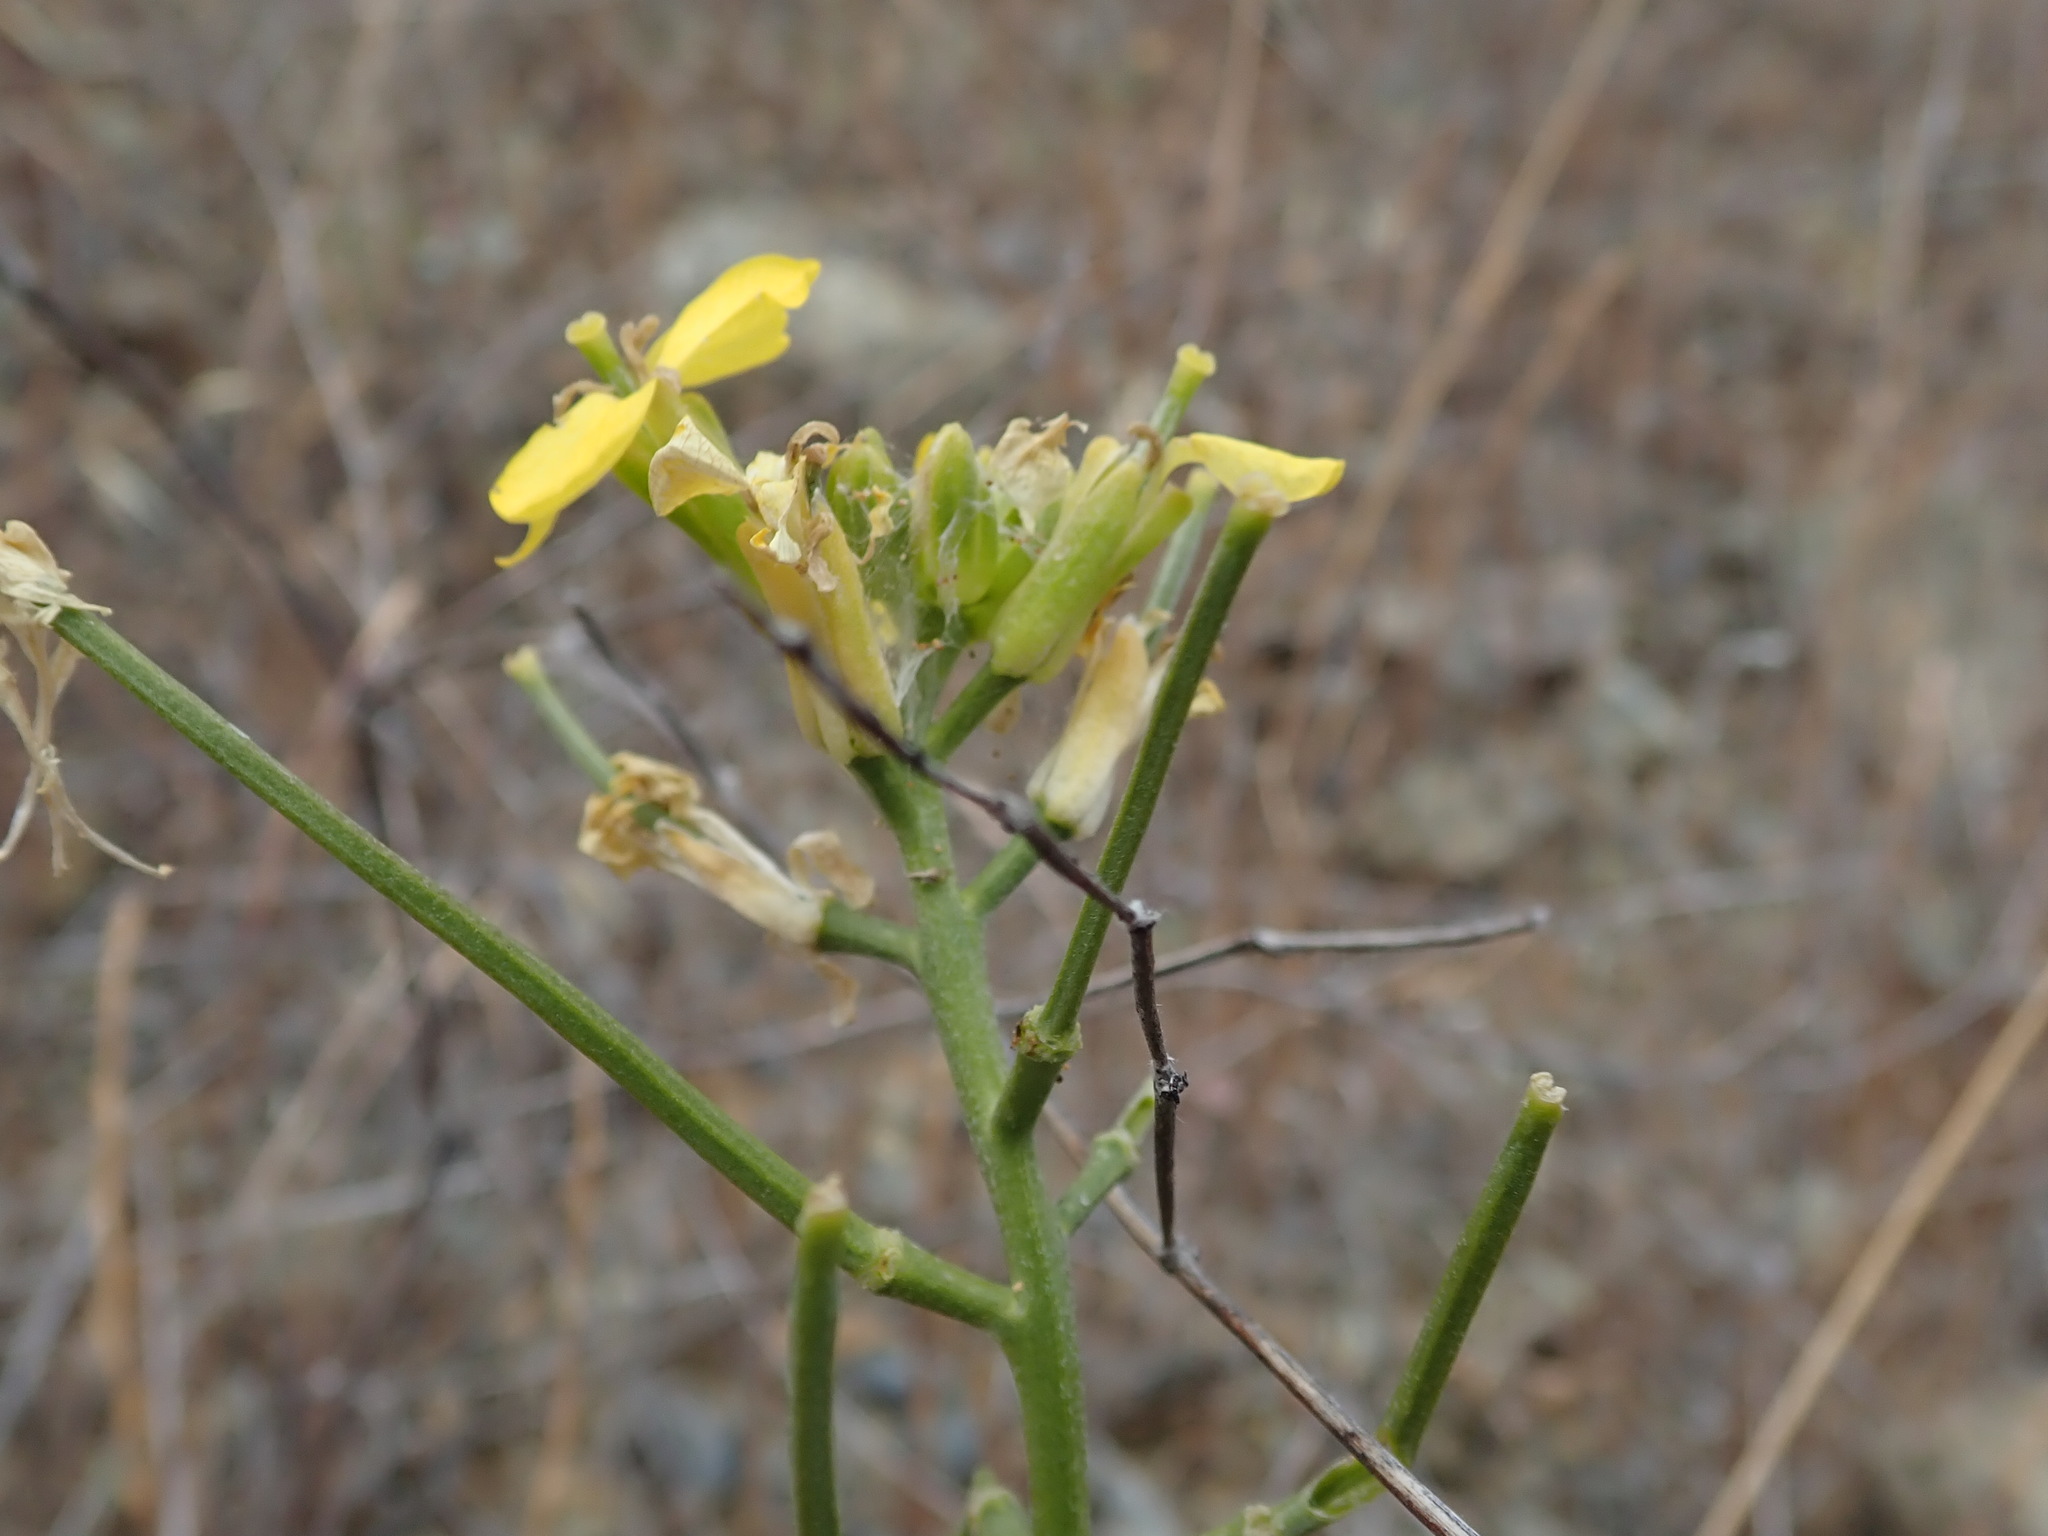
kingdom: Plantae
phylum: Tracheophyta
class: Magnoliopsida
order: Brassicales
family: Brassicaceae
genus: Erysimum
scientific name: Erysimum franciscanum
